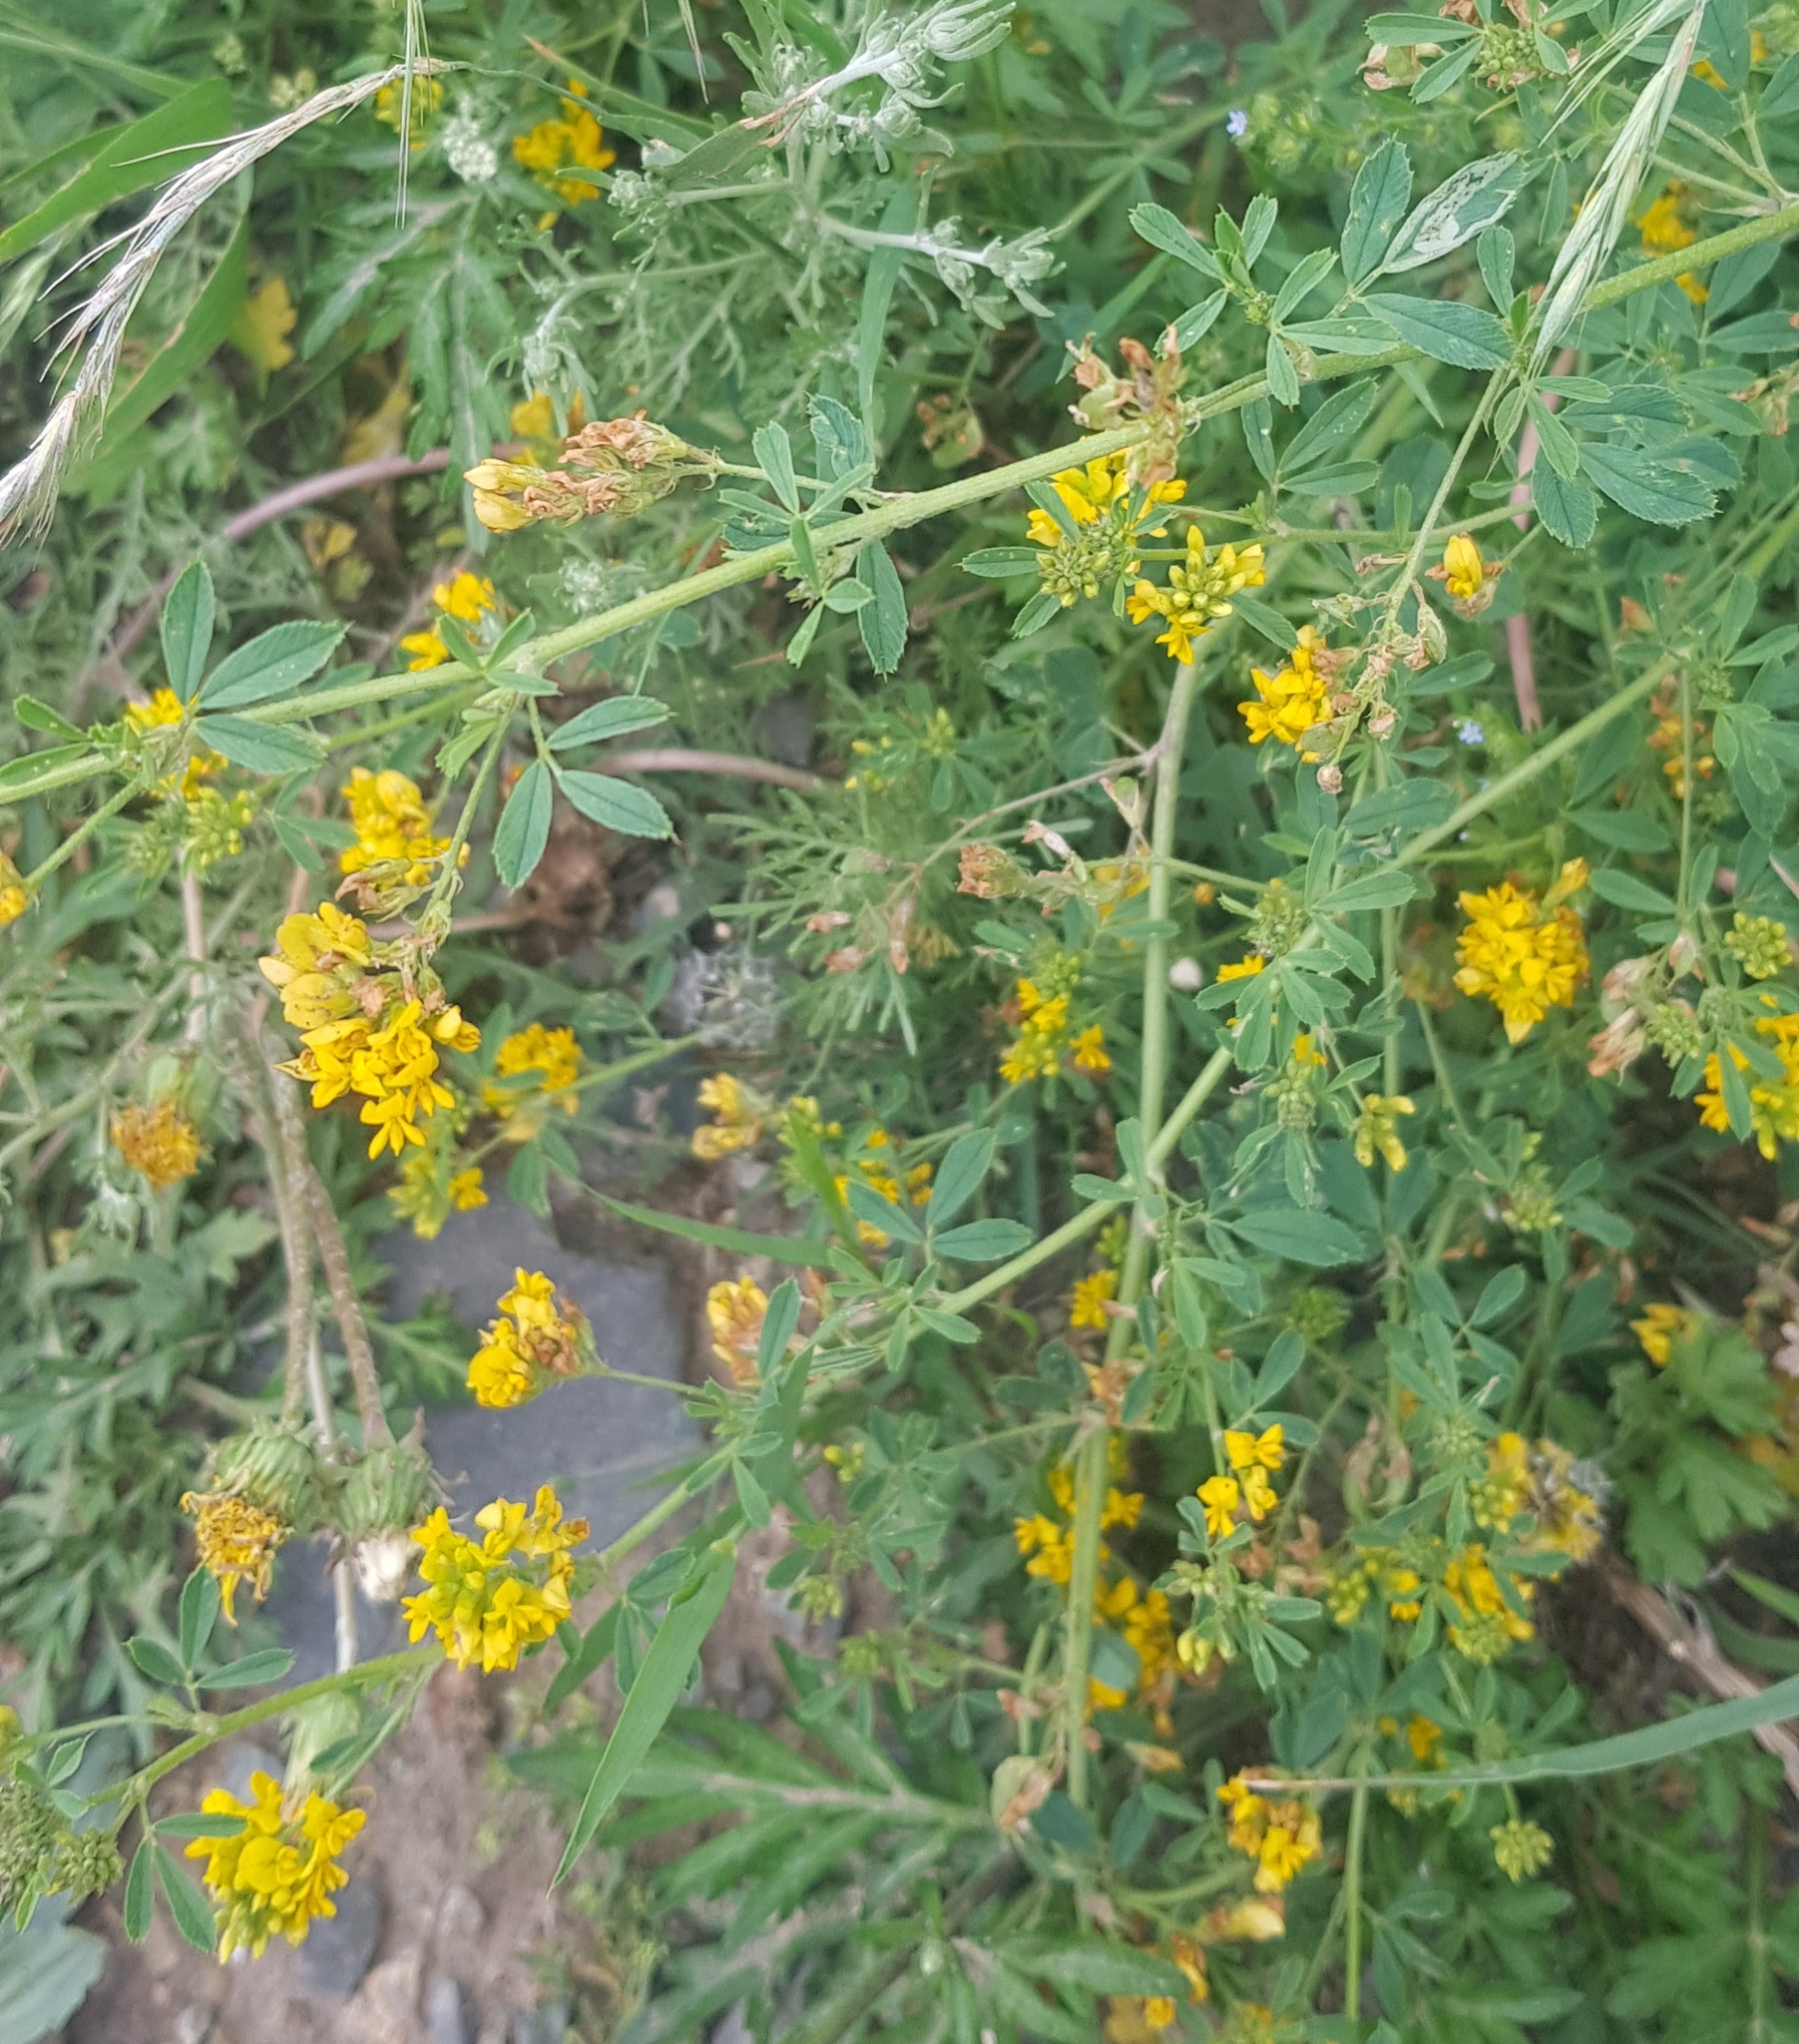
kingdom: Plantae
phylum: Tracheophyta
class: Magnoliopsida
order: Fabales
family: Fabaceae
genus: Medicago
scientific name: Medicago falcata
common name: Sickle medick
